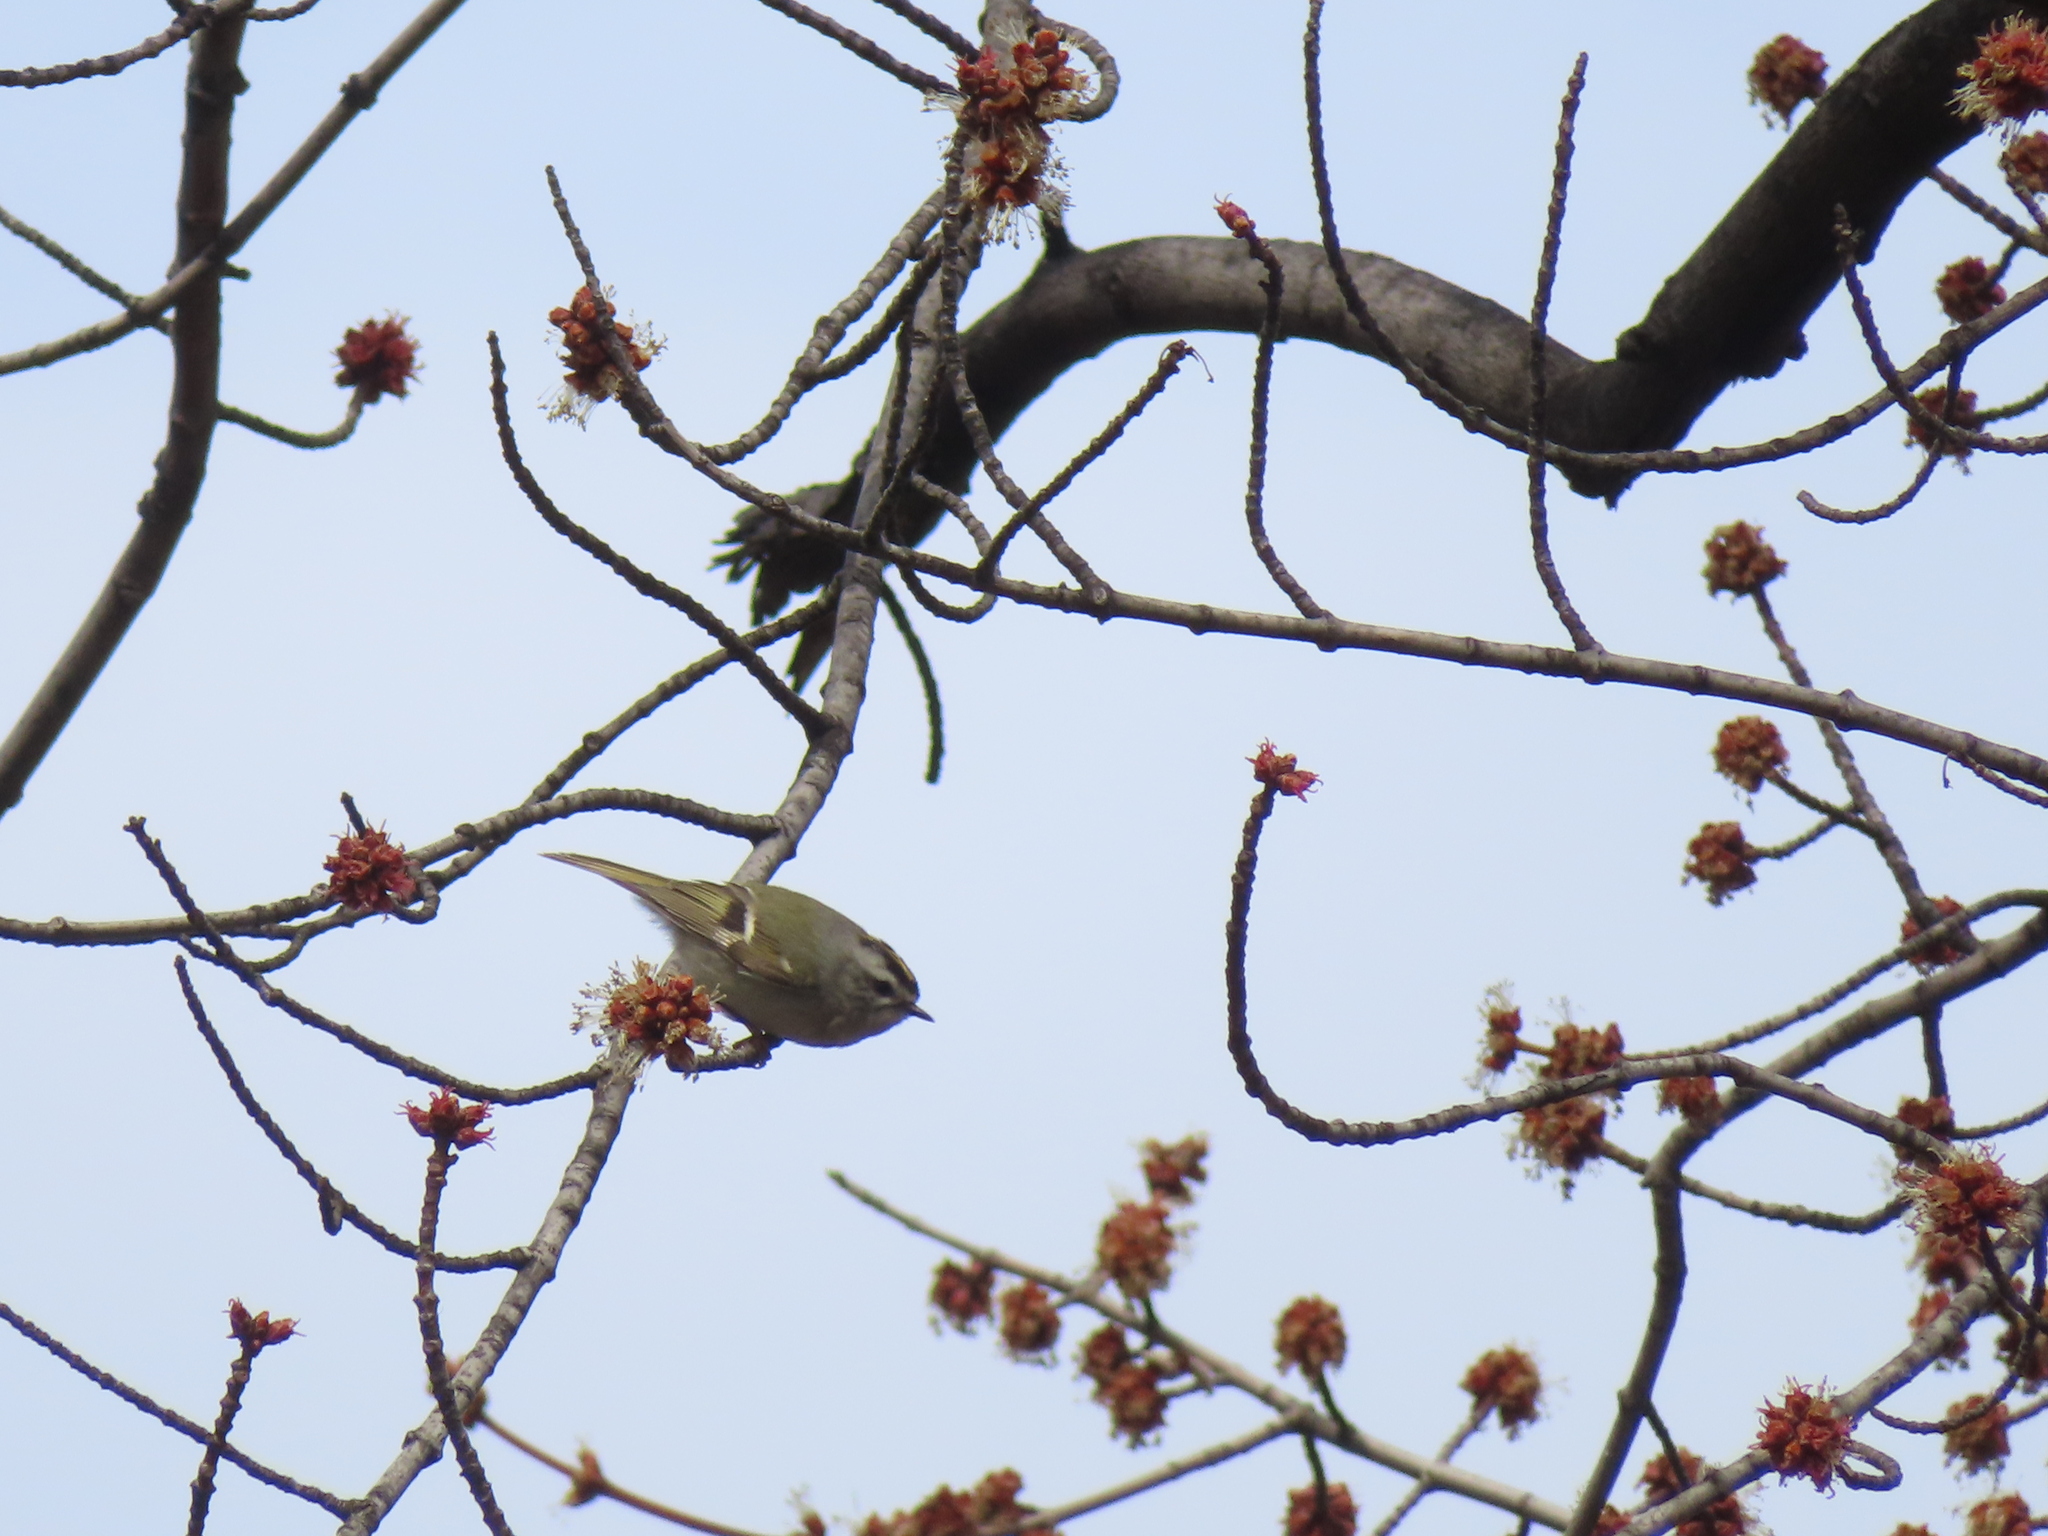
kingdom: Animalia
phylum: Chordata
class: Aves
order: Passeriformes
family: Regulidae
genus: Regulus
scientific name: Regulus satrapa
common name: Golden-crowned kinglet
